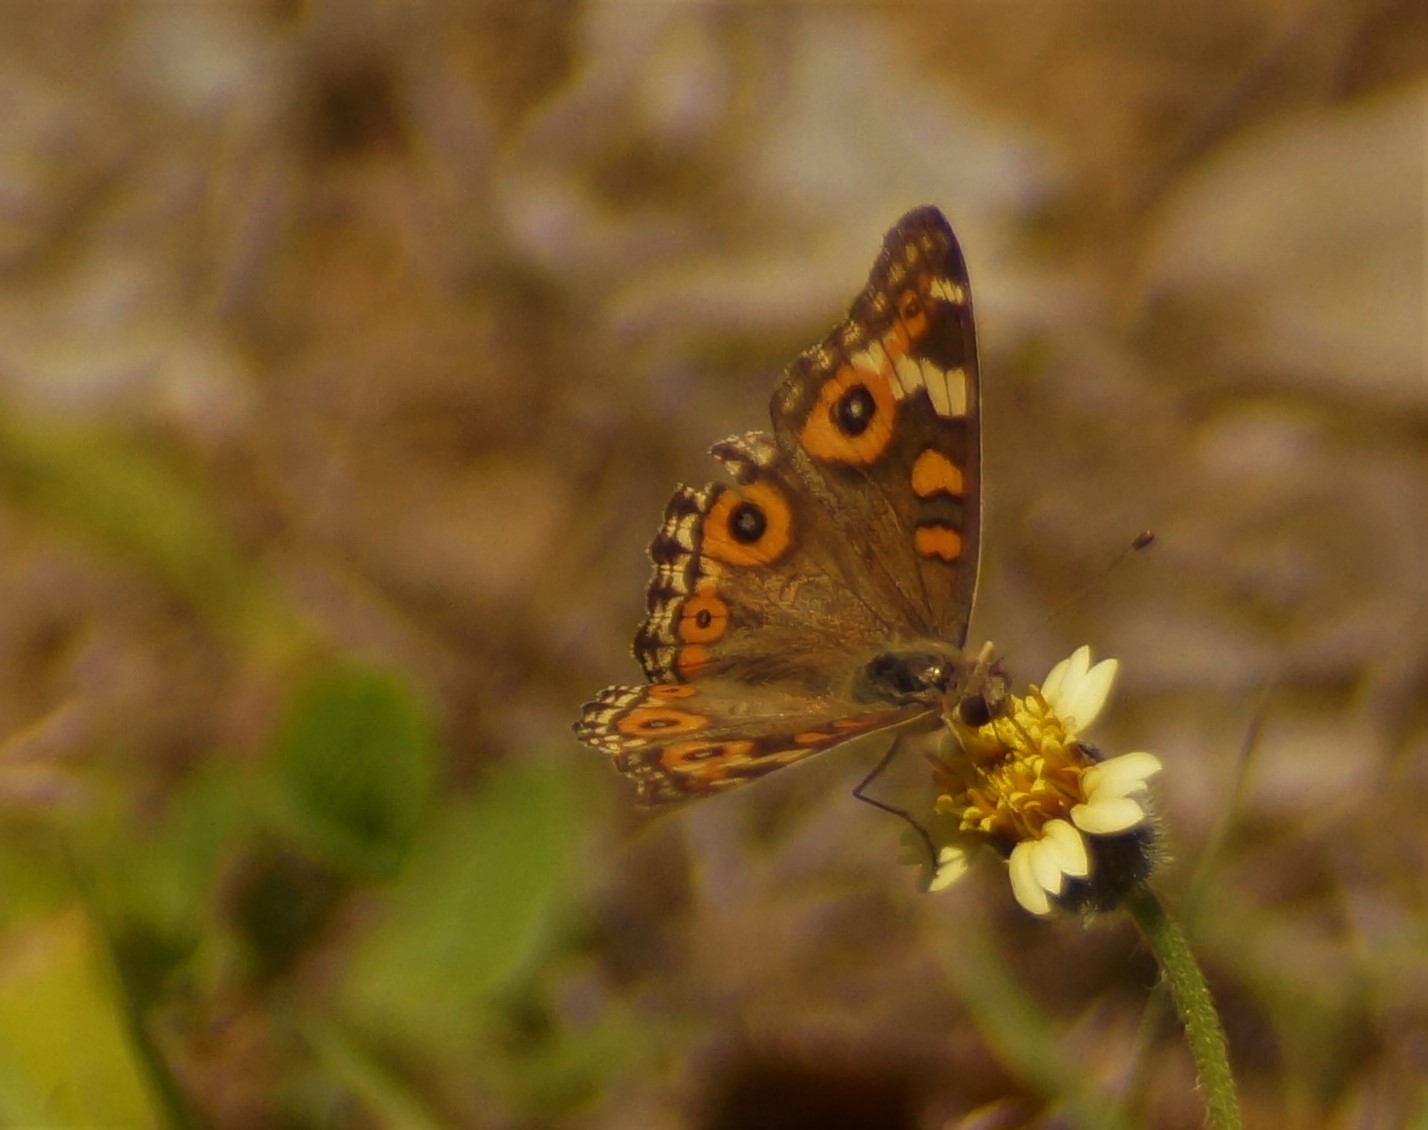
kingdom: Animalia
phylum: Arthropoda
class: Insecta
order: Lepidoptera
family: Nymphalidae
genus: Junonia
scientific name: Junonia villida
